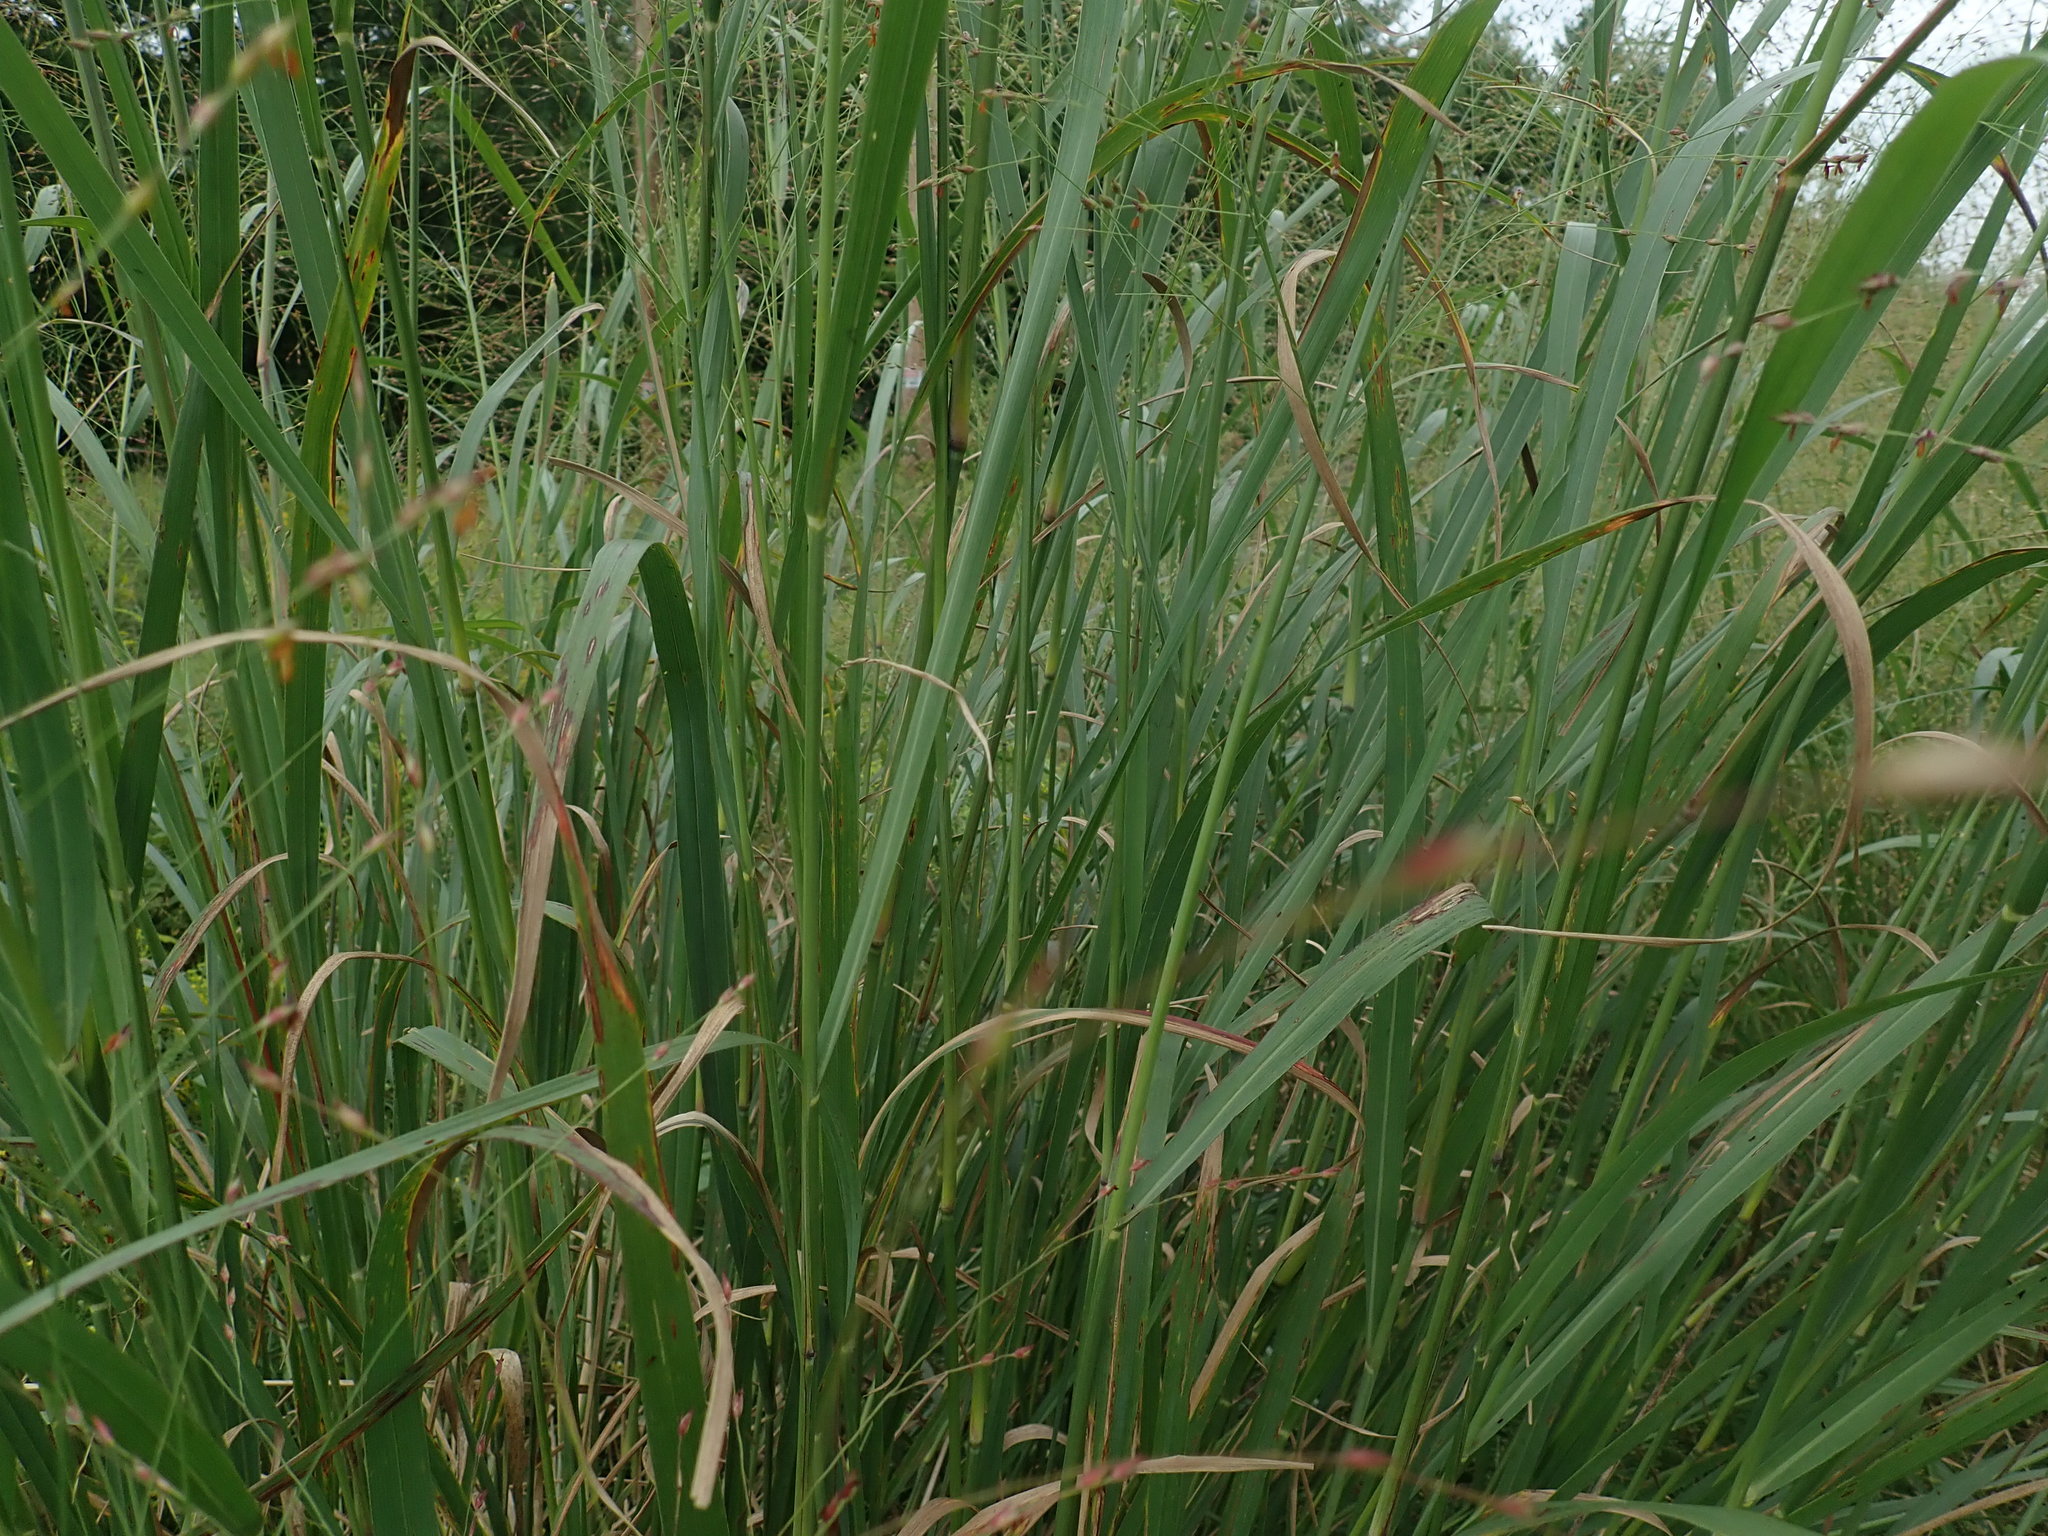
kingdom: Plantae
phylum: Tracheophyta
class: Liliopsida
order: Poales
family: Poaceae
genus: Panicum
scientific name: Panicum virgatum
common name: Switchgrass
